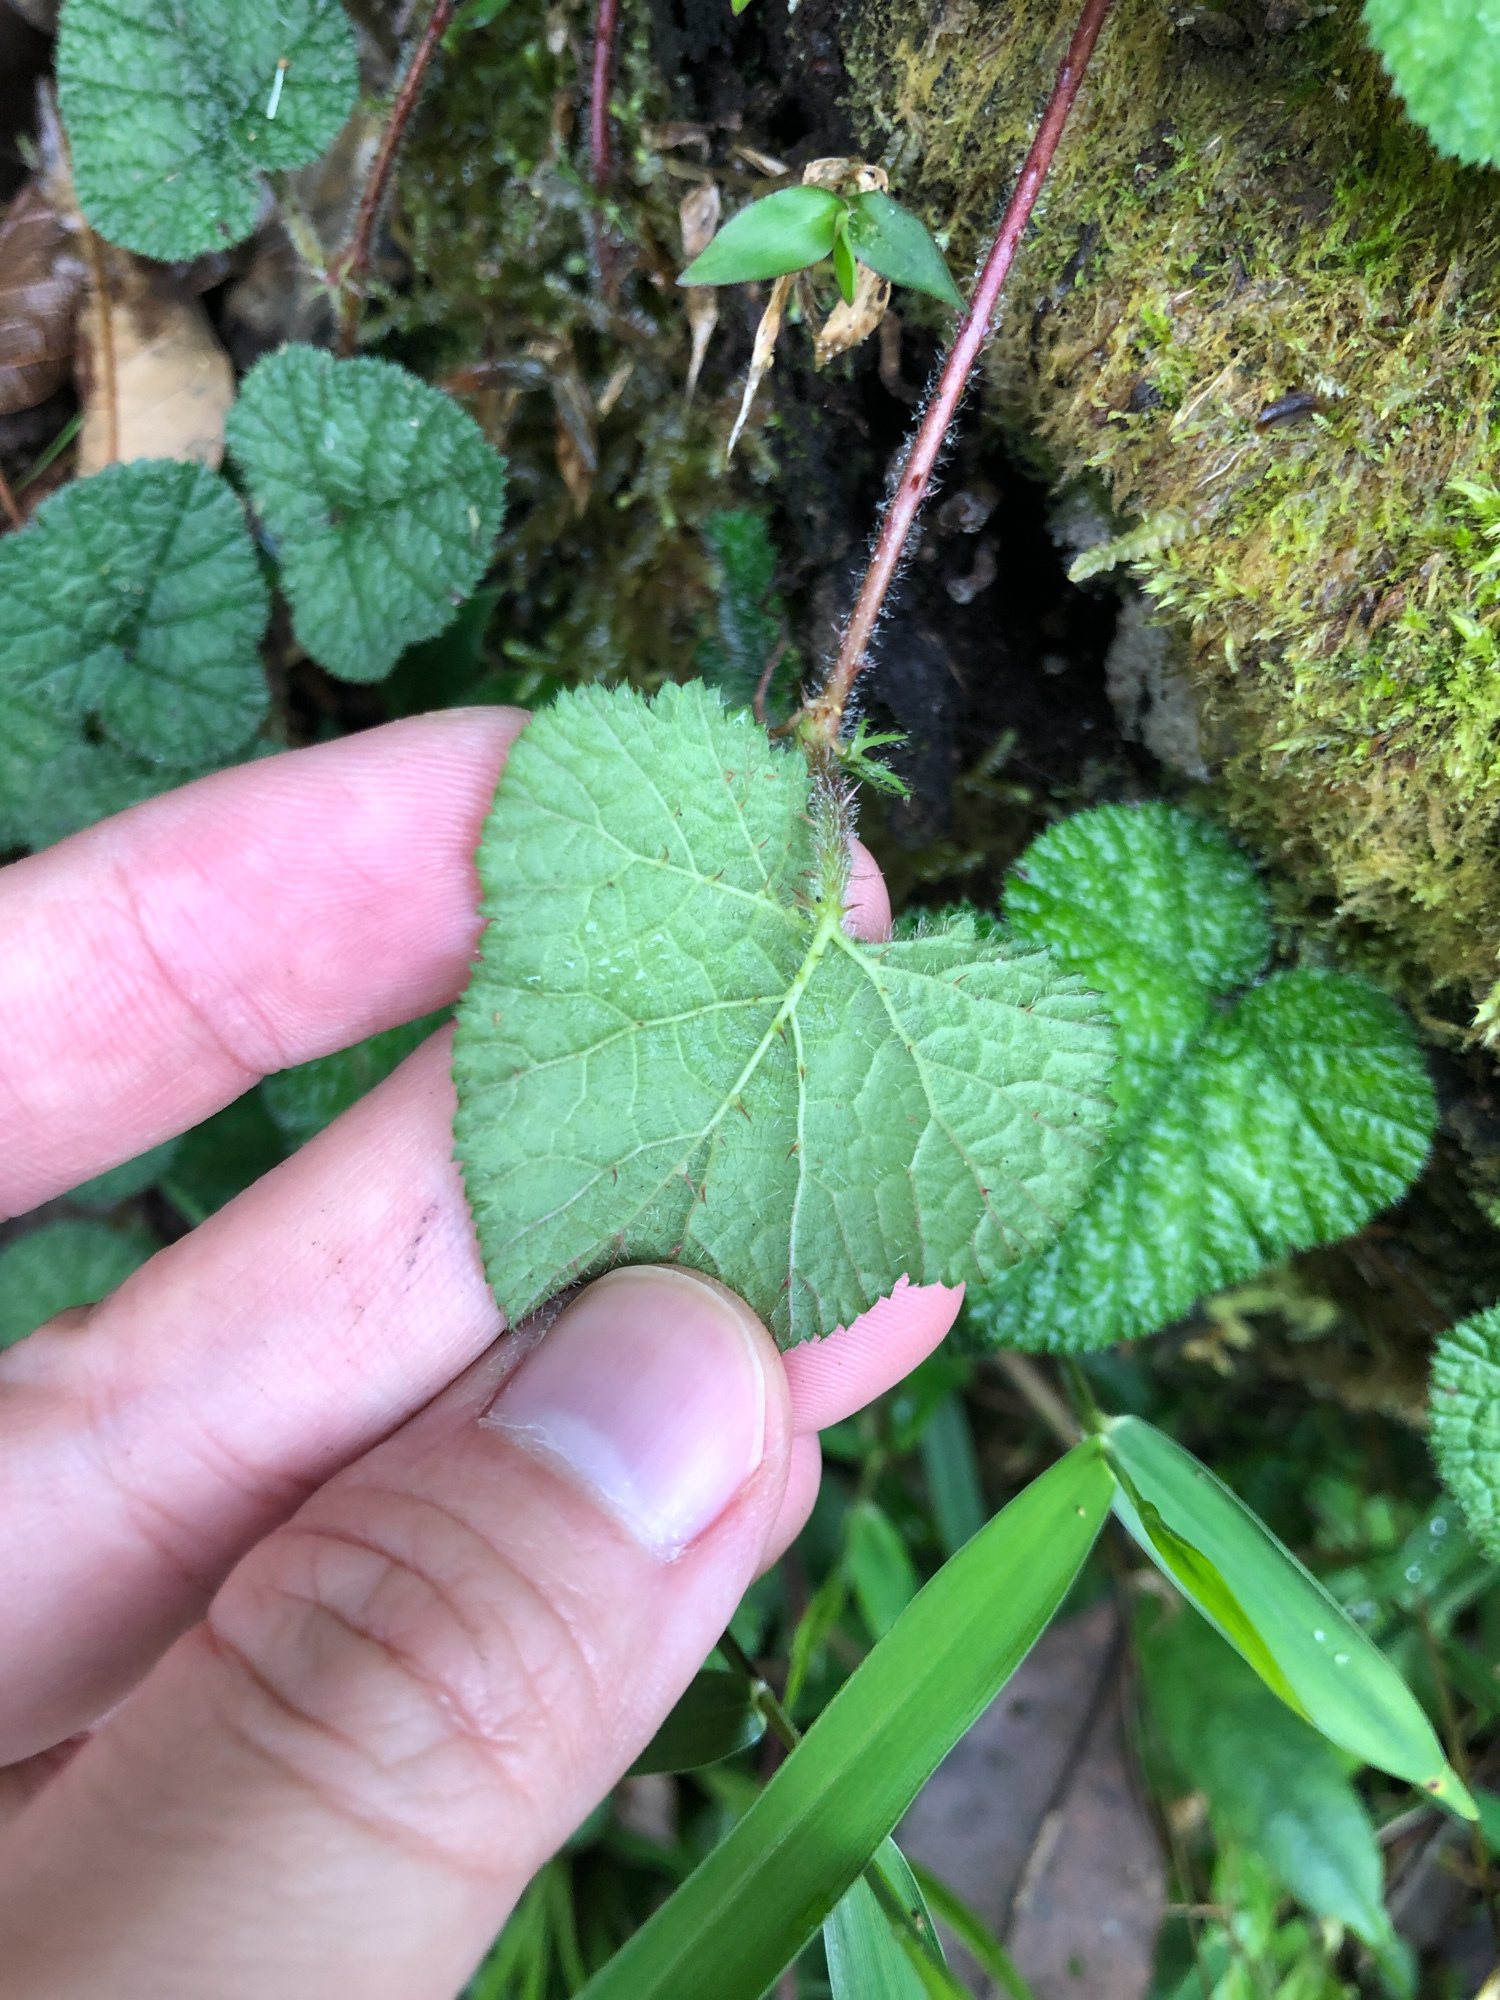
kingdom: Plantae
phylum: Tracheophyta
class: Magnoliopsida
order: Rosales
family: Rosaceae
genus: Rubus
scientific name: Rubus pectinellus
